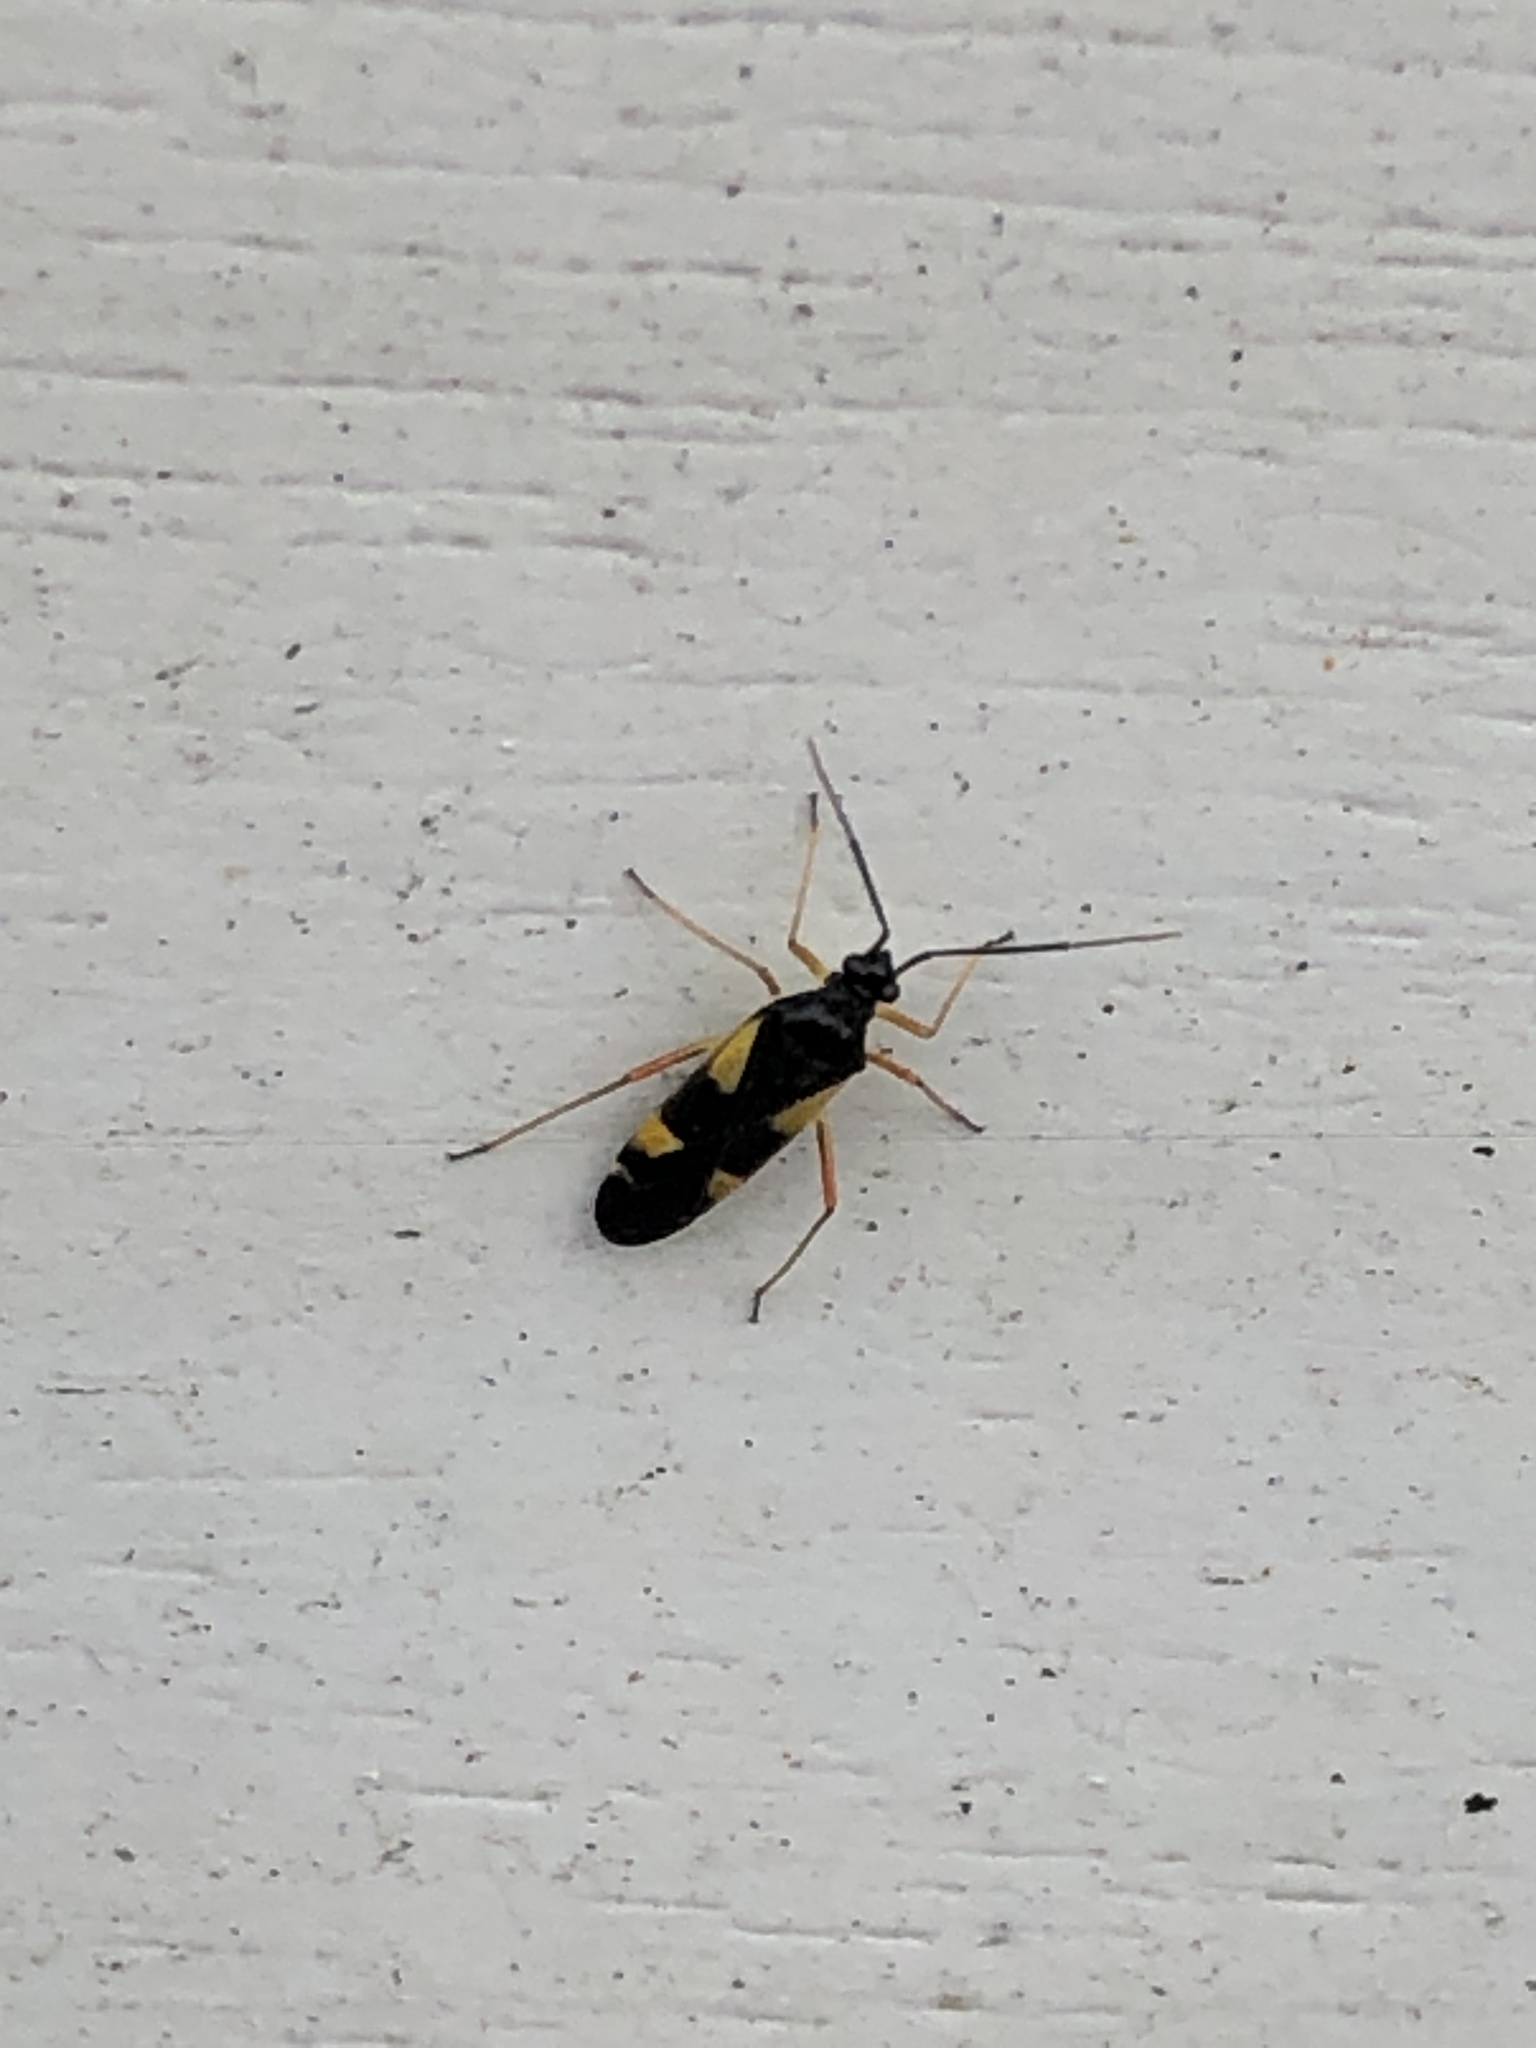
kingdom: Animalia
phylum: Arthropoda
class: Insecta
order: Hemiptera
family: Miridae
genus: Dryophilocoris
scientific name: Dryophilocoris flavoquadrimaculatus
